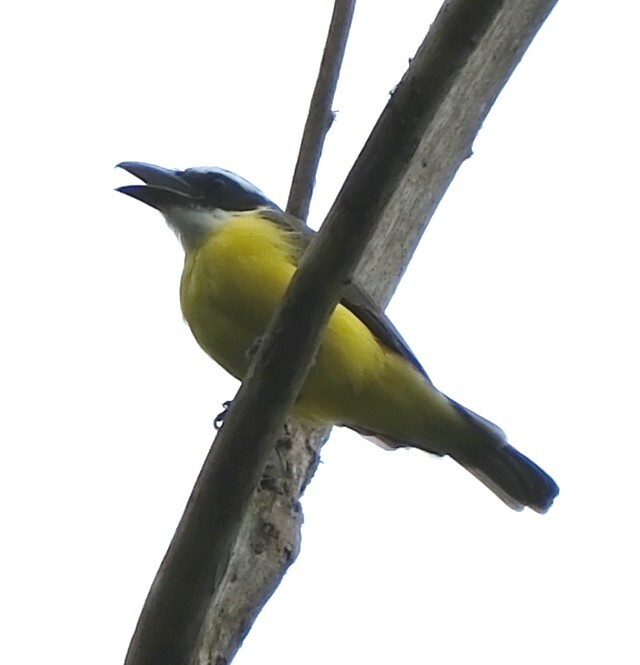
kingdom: Animalia
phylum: Chordata
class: Aves
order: Passeriformes
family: Tyrannidae
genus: Megarynchus
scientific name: Megarynchus pitangua
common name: Boat-billed flycatcher
